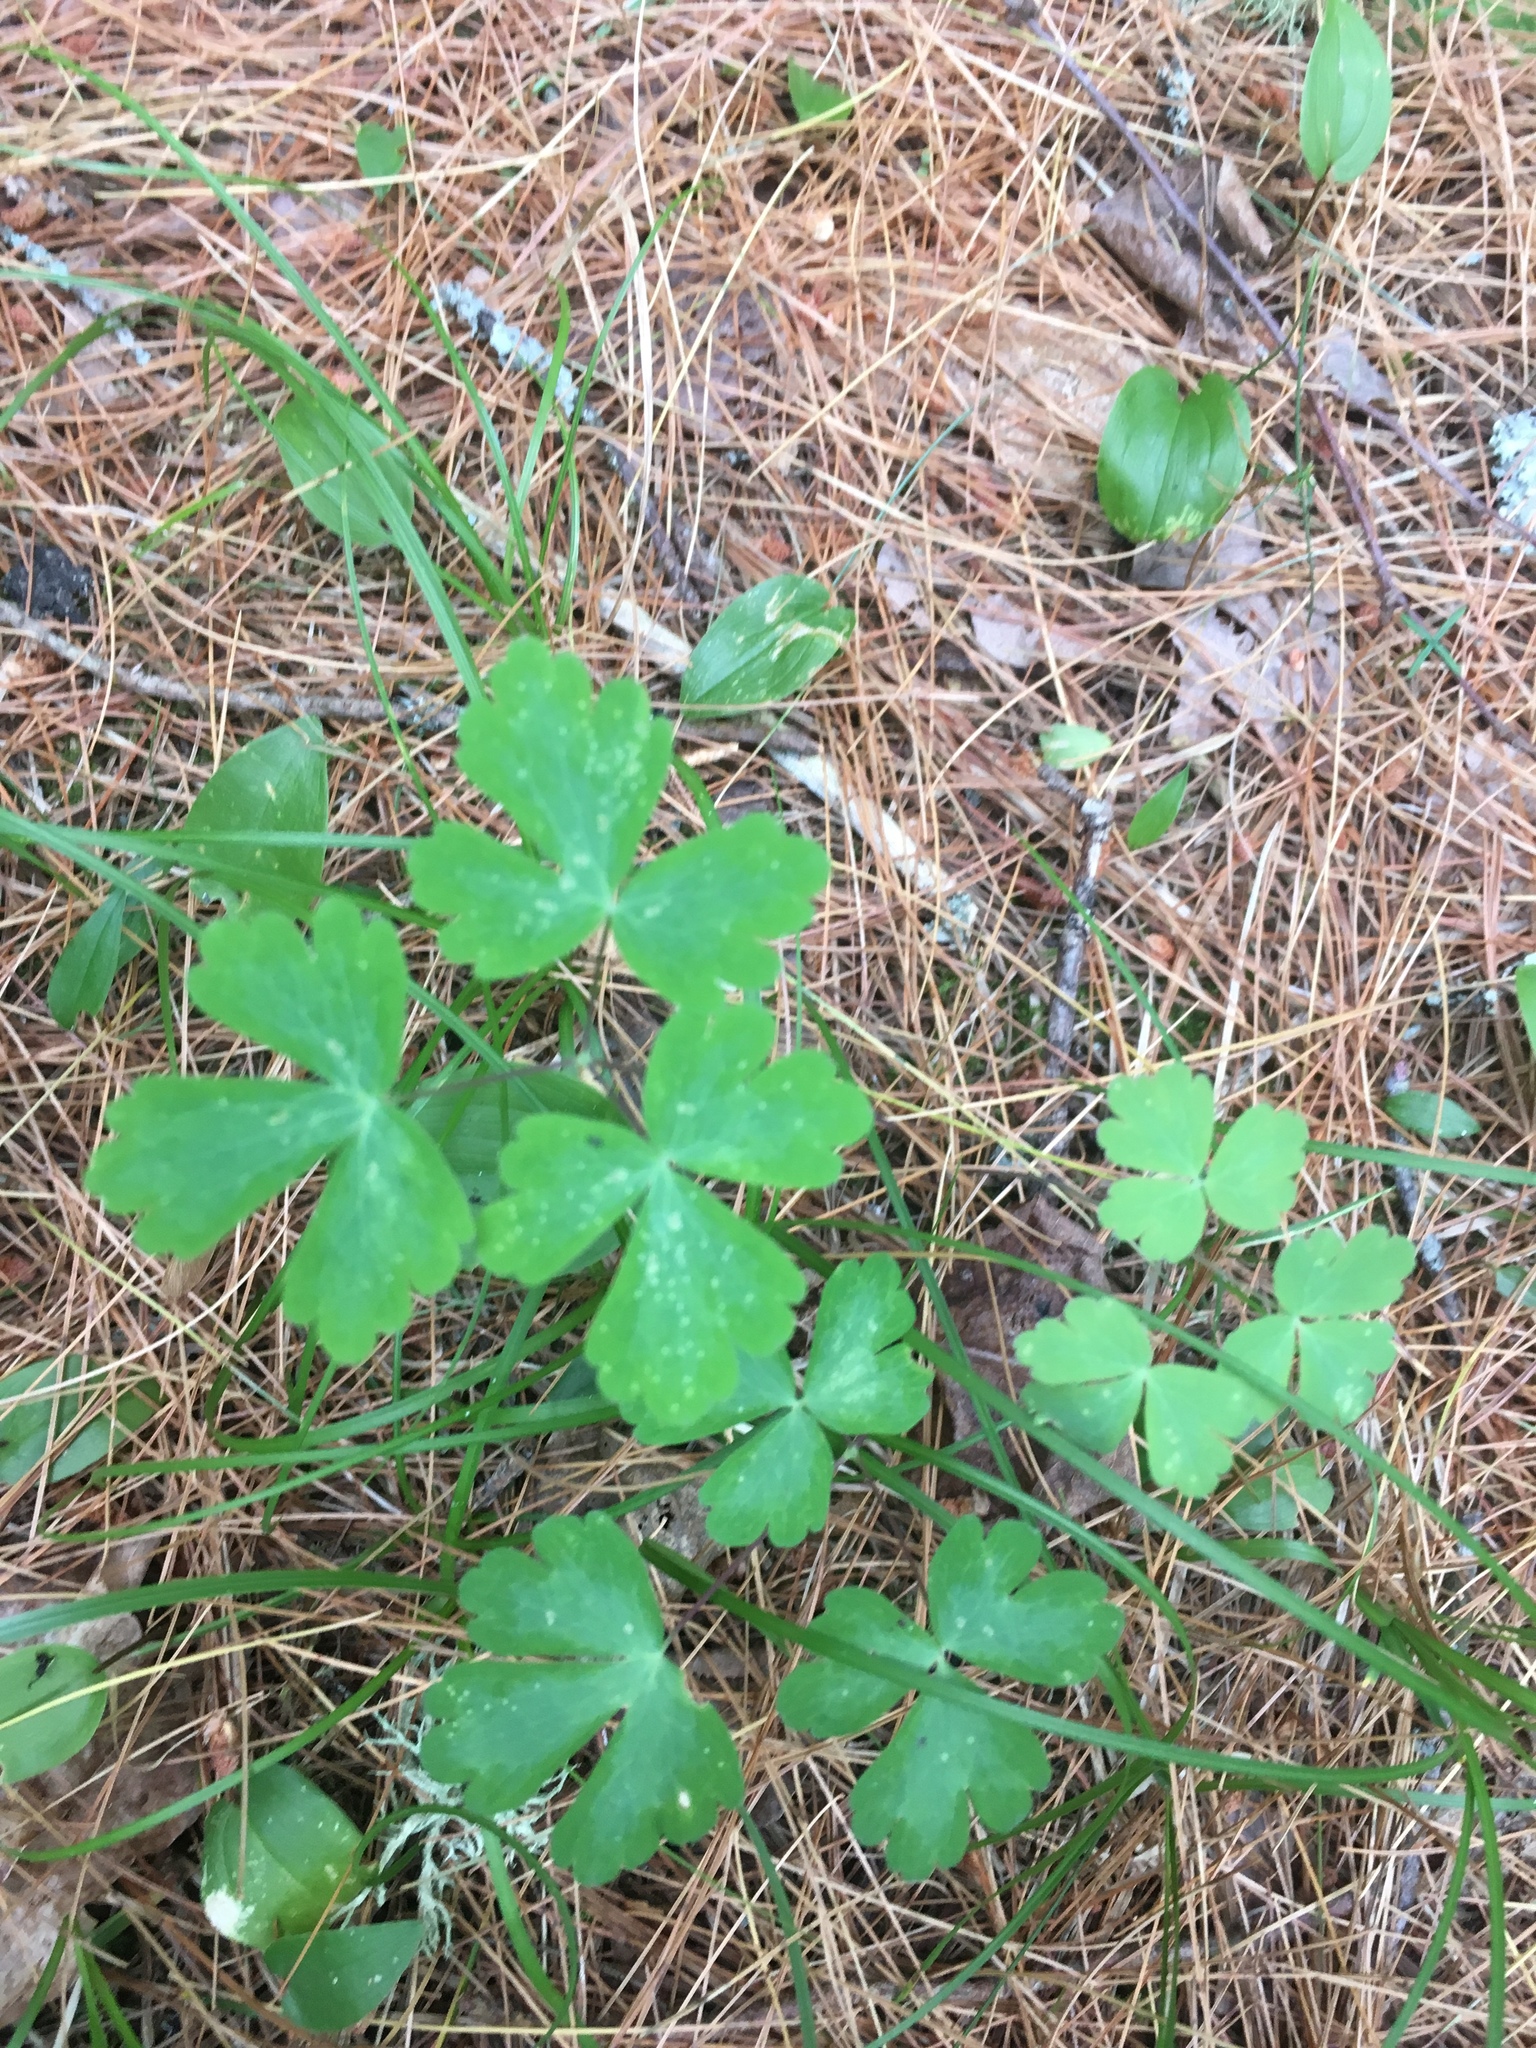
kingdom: Plantae
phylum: Tracheophyta
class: Magnoliopsida
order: Ranunculales
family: Ranunculaceae
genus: Aquilegia
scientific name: Aquilegia canadensis
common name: American columbine
